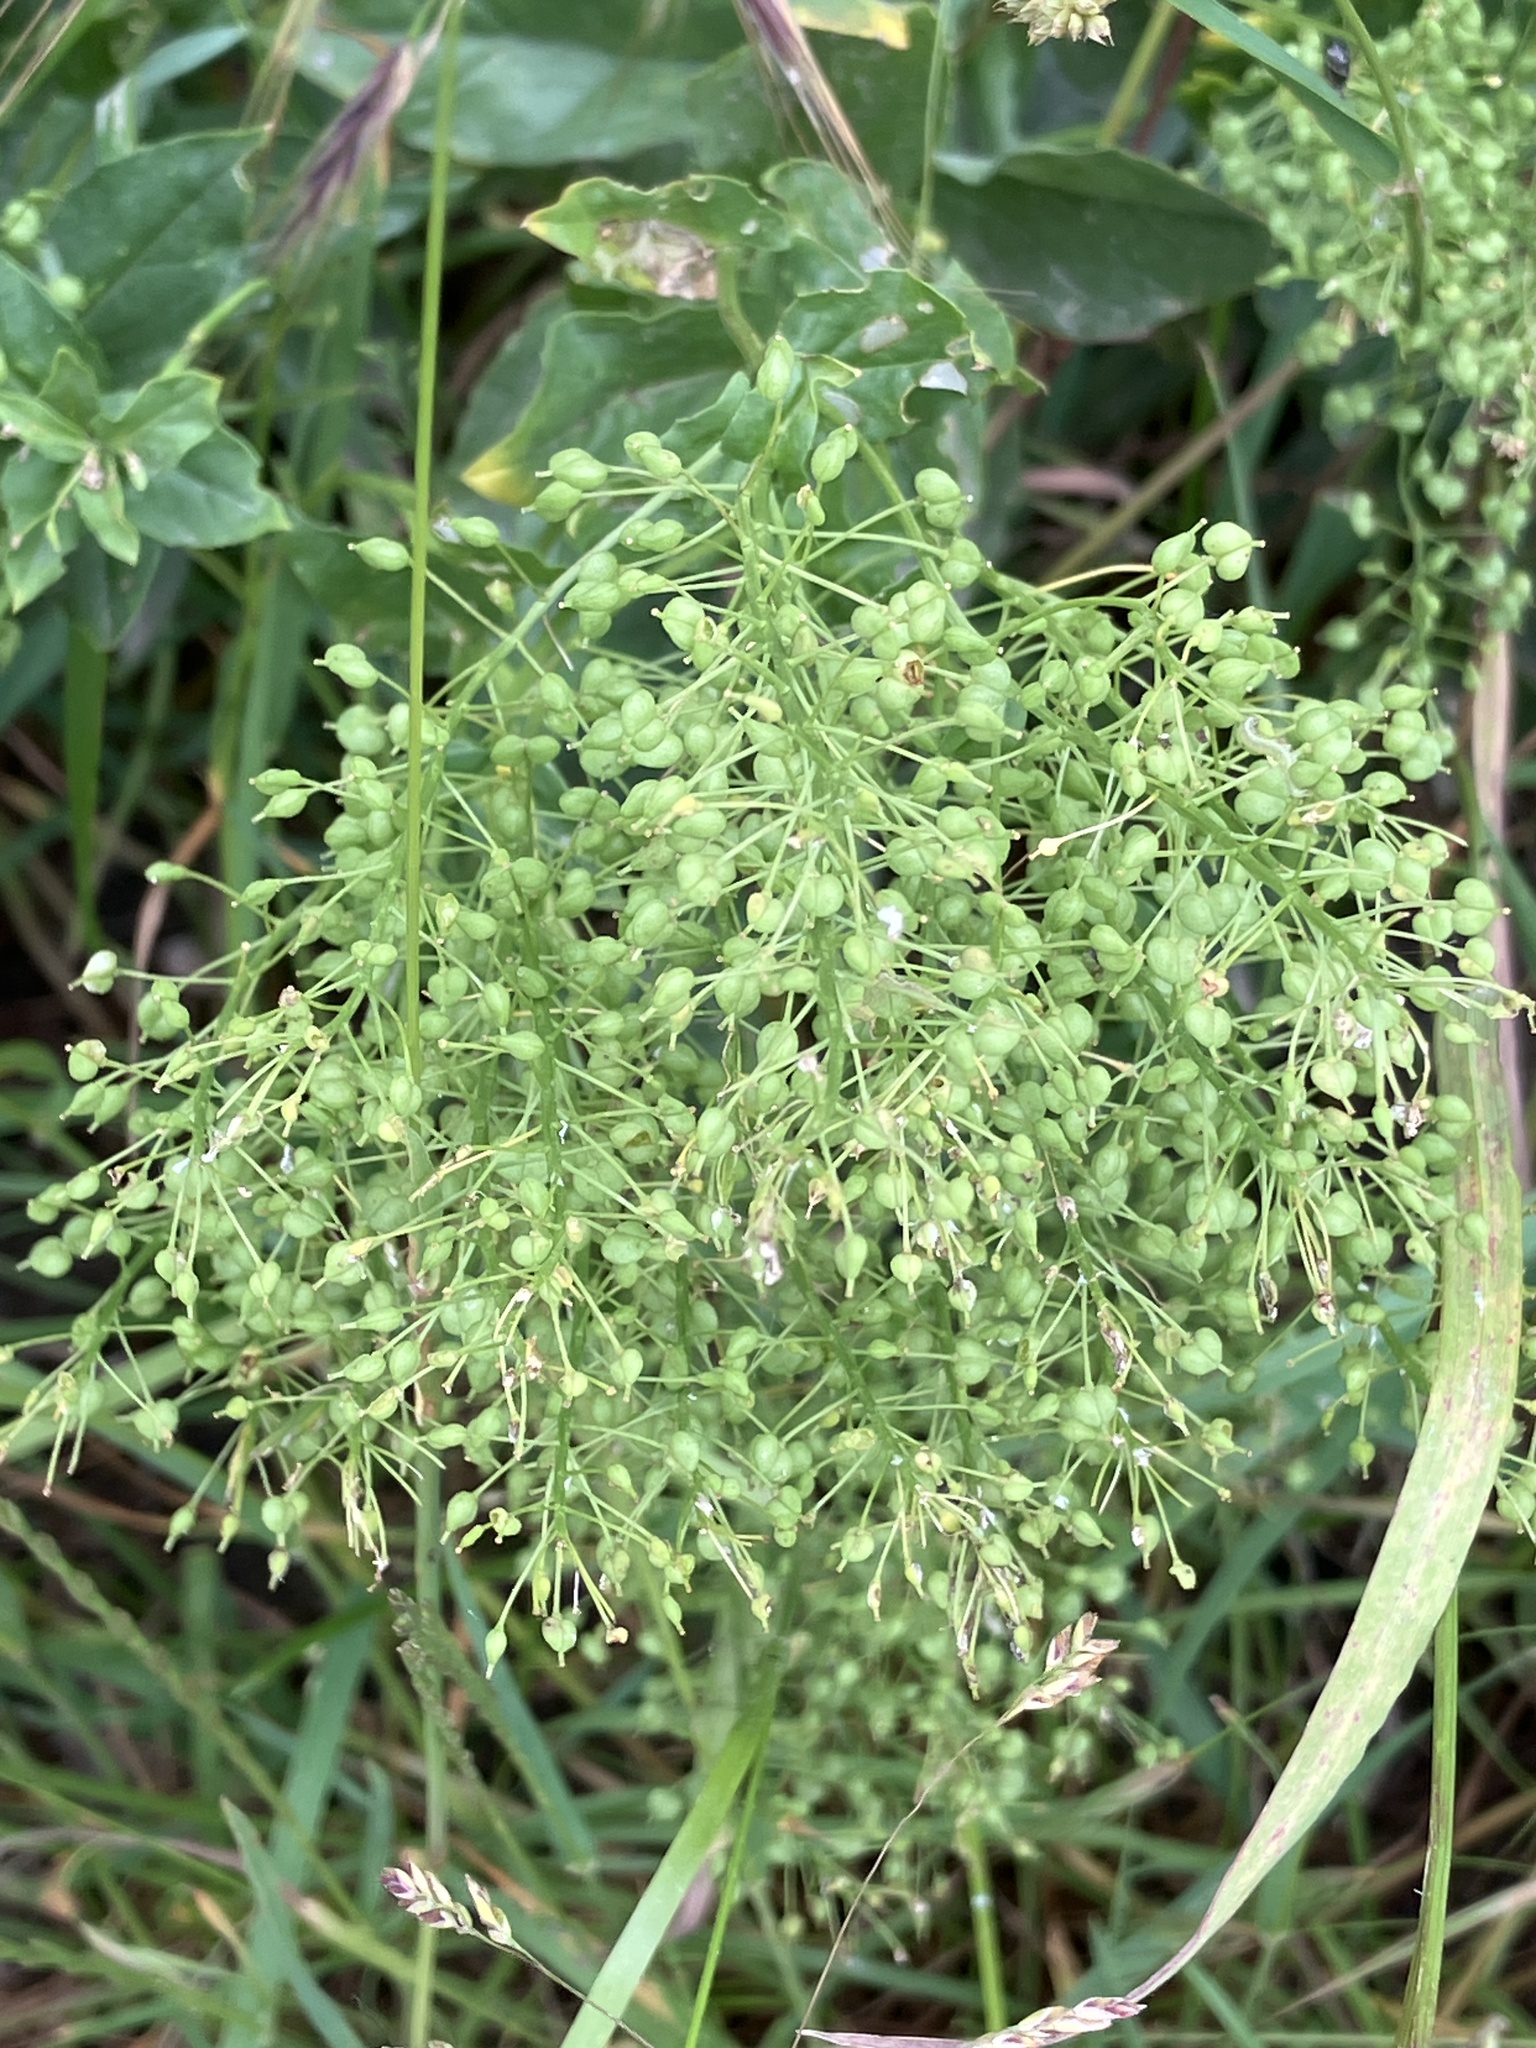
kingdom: Plantae
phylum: Tracheophyta
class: Magnoliopsida
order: Brassicales
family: Brassicaceae
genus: Lepidium
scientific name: Lepidium draba
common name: Hoary cress
